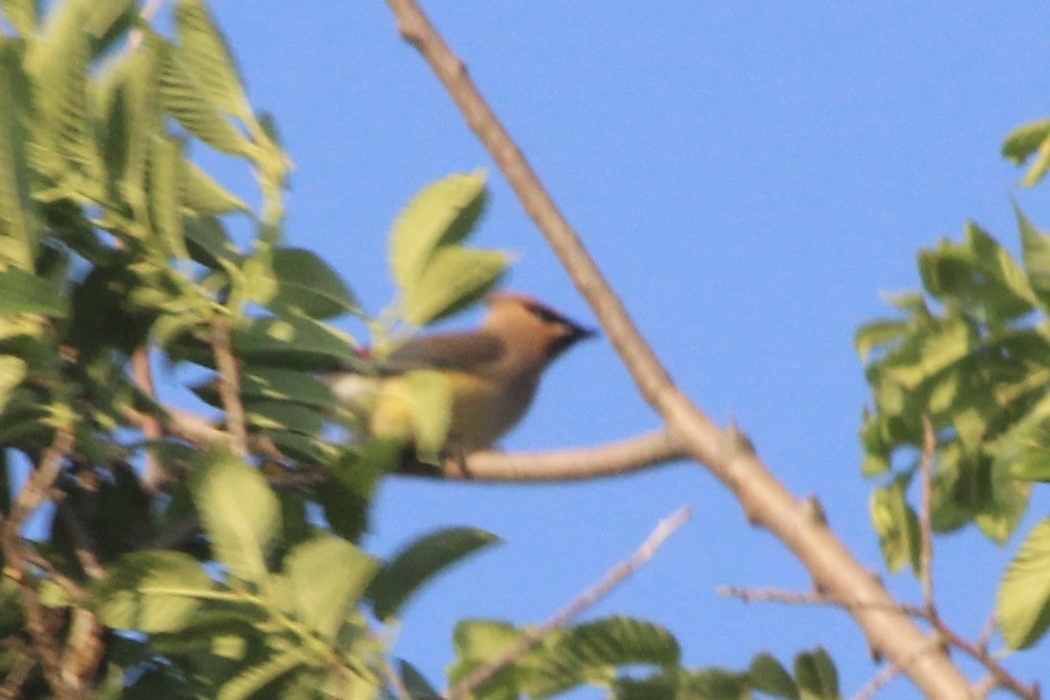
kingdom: Animalia
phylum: Chordata
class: Aves
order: Passeriformes
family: Bombycillidae
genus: Bombycilla
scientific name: Bombycilla cedrorum
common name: Cedar waxwing
